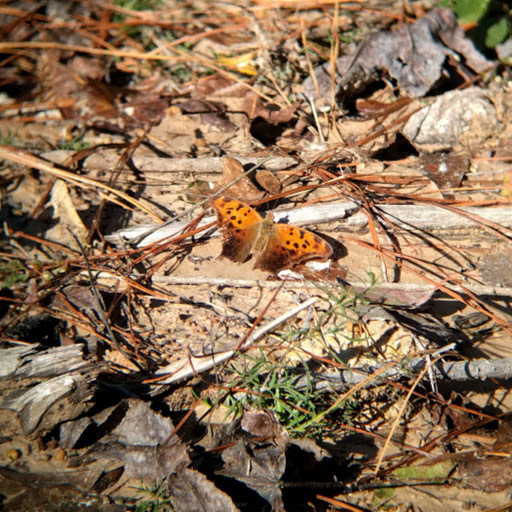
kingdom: Animalia
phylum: Arthropoda
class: Insecta
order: Lepidoptera
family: Nymphalidae
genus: Polygonia
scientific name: Polygonia interrogationis
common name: Question mark
